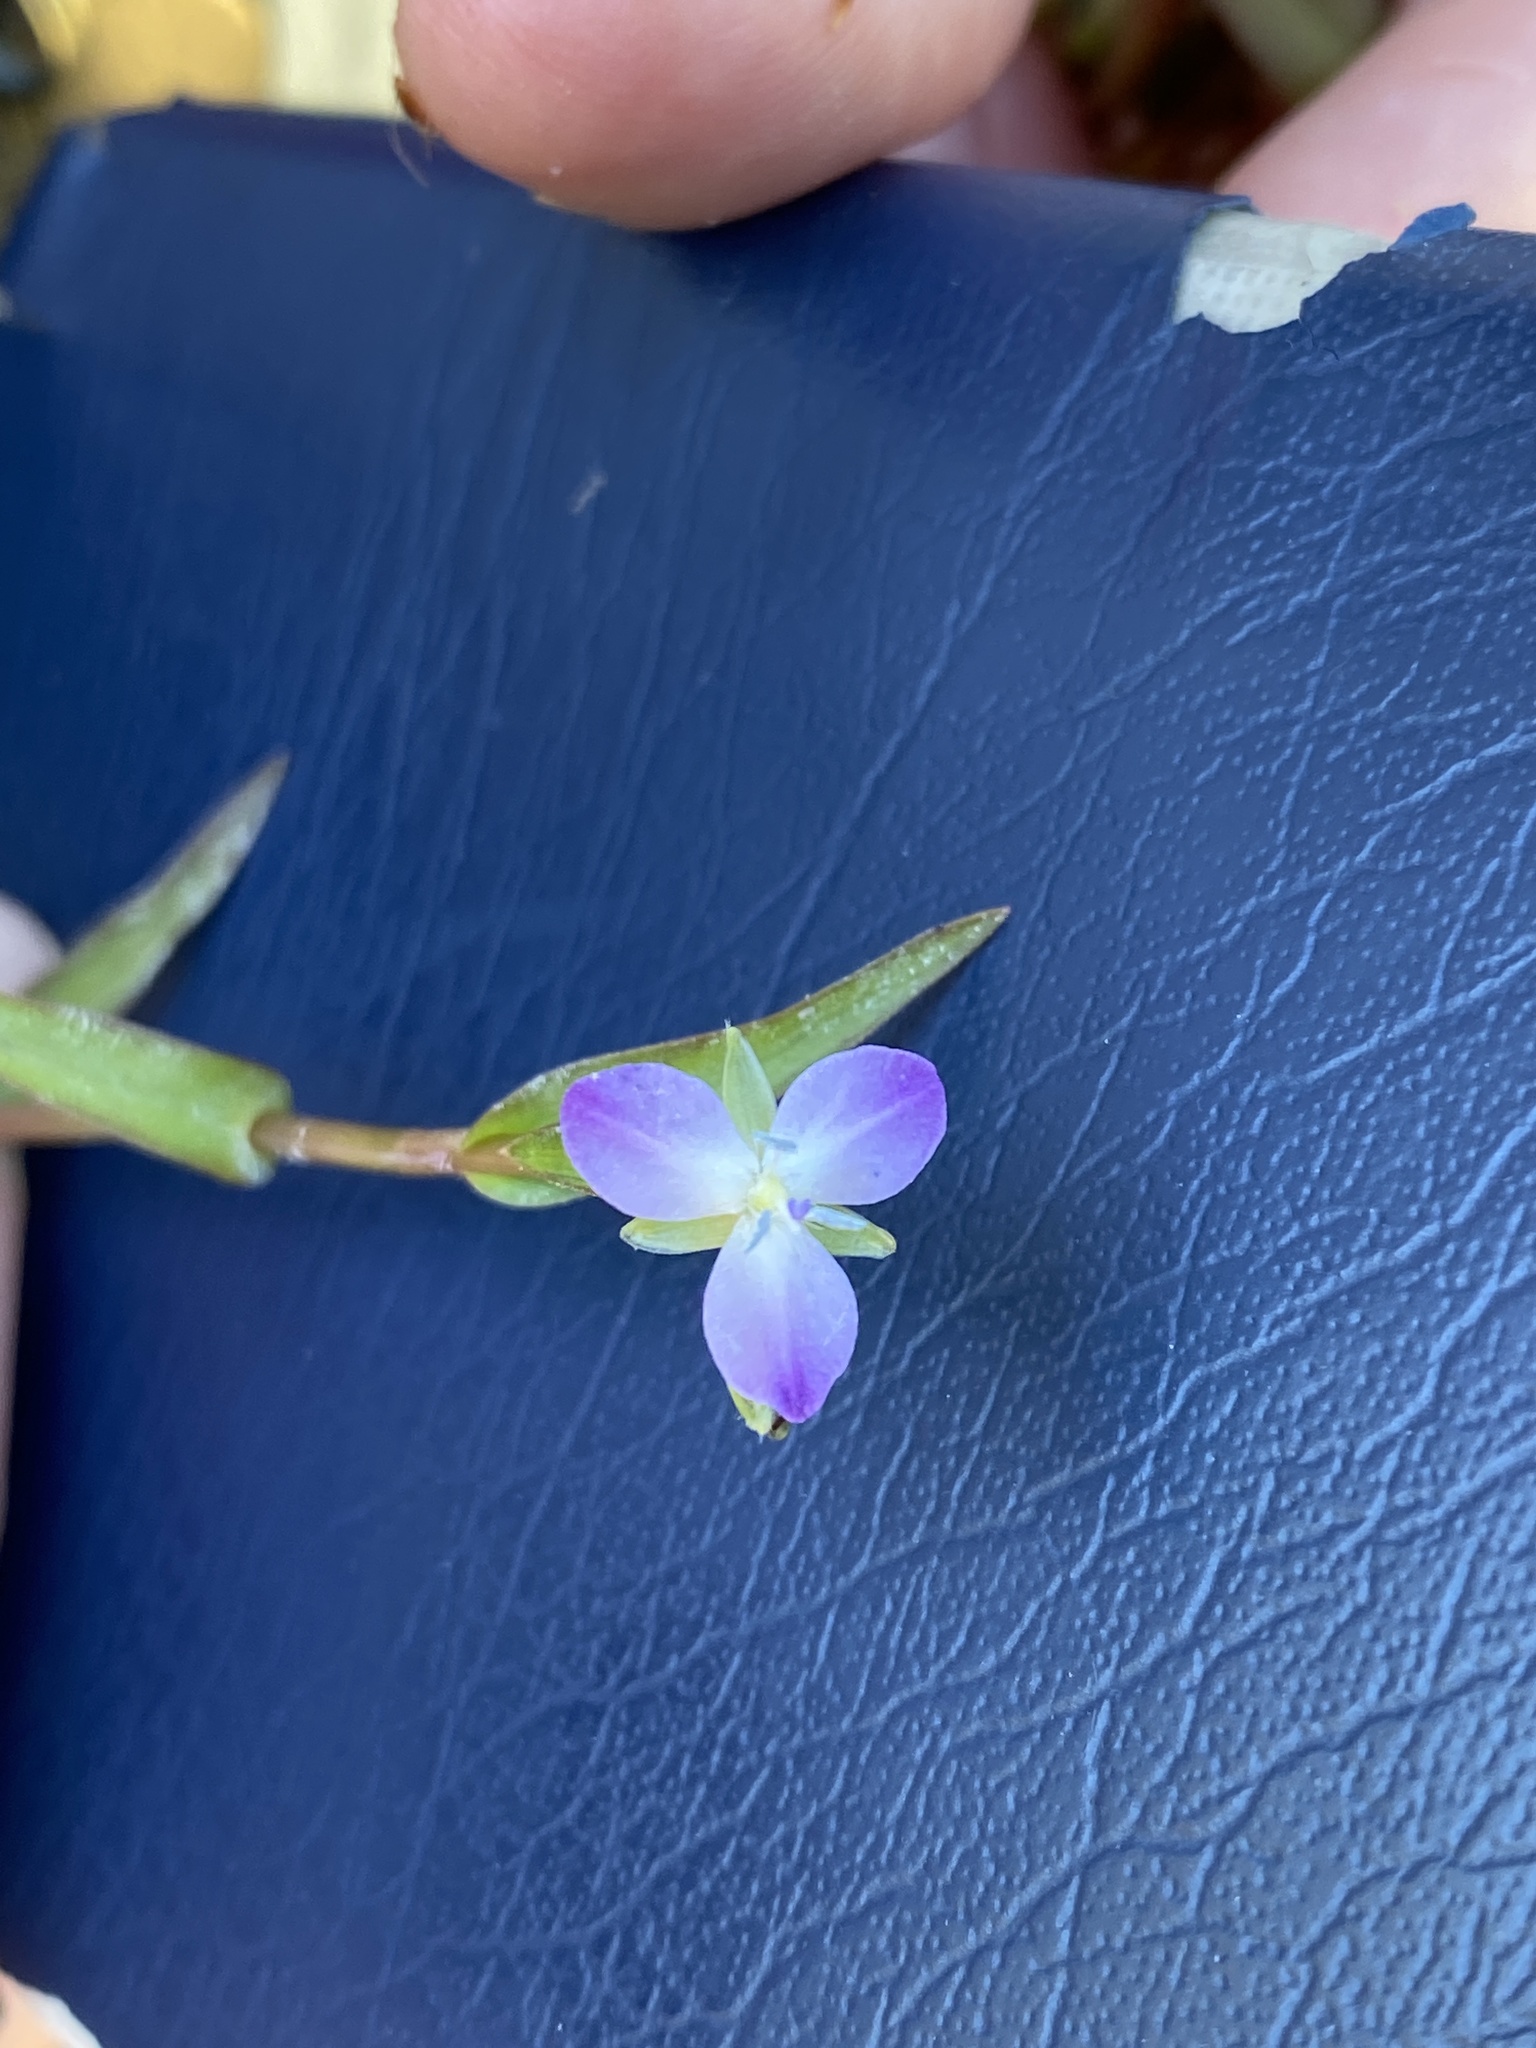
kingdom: Plantae
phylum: Tracheophyta
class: Liliopsida
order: Commelinales
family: Commelinaceae
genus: Murdannia
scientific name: Murdannia keisak
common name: Wartremoving herb
